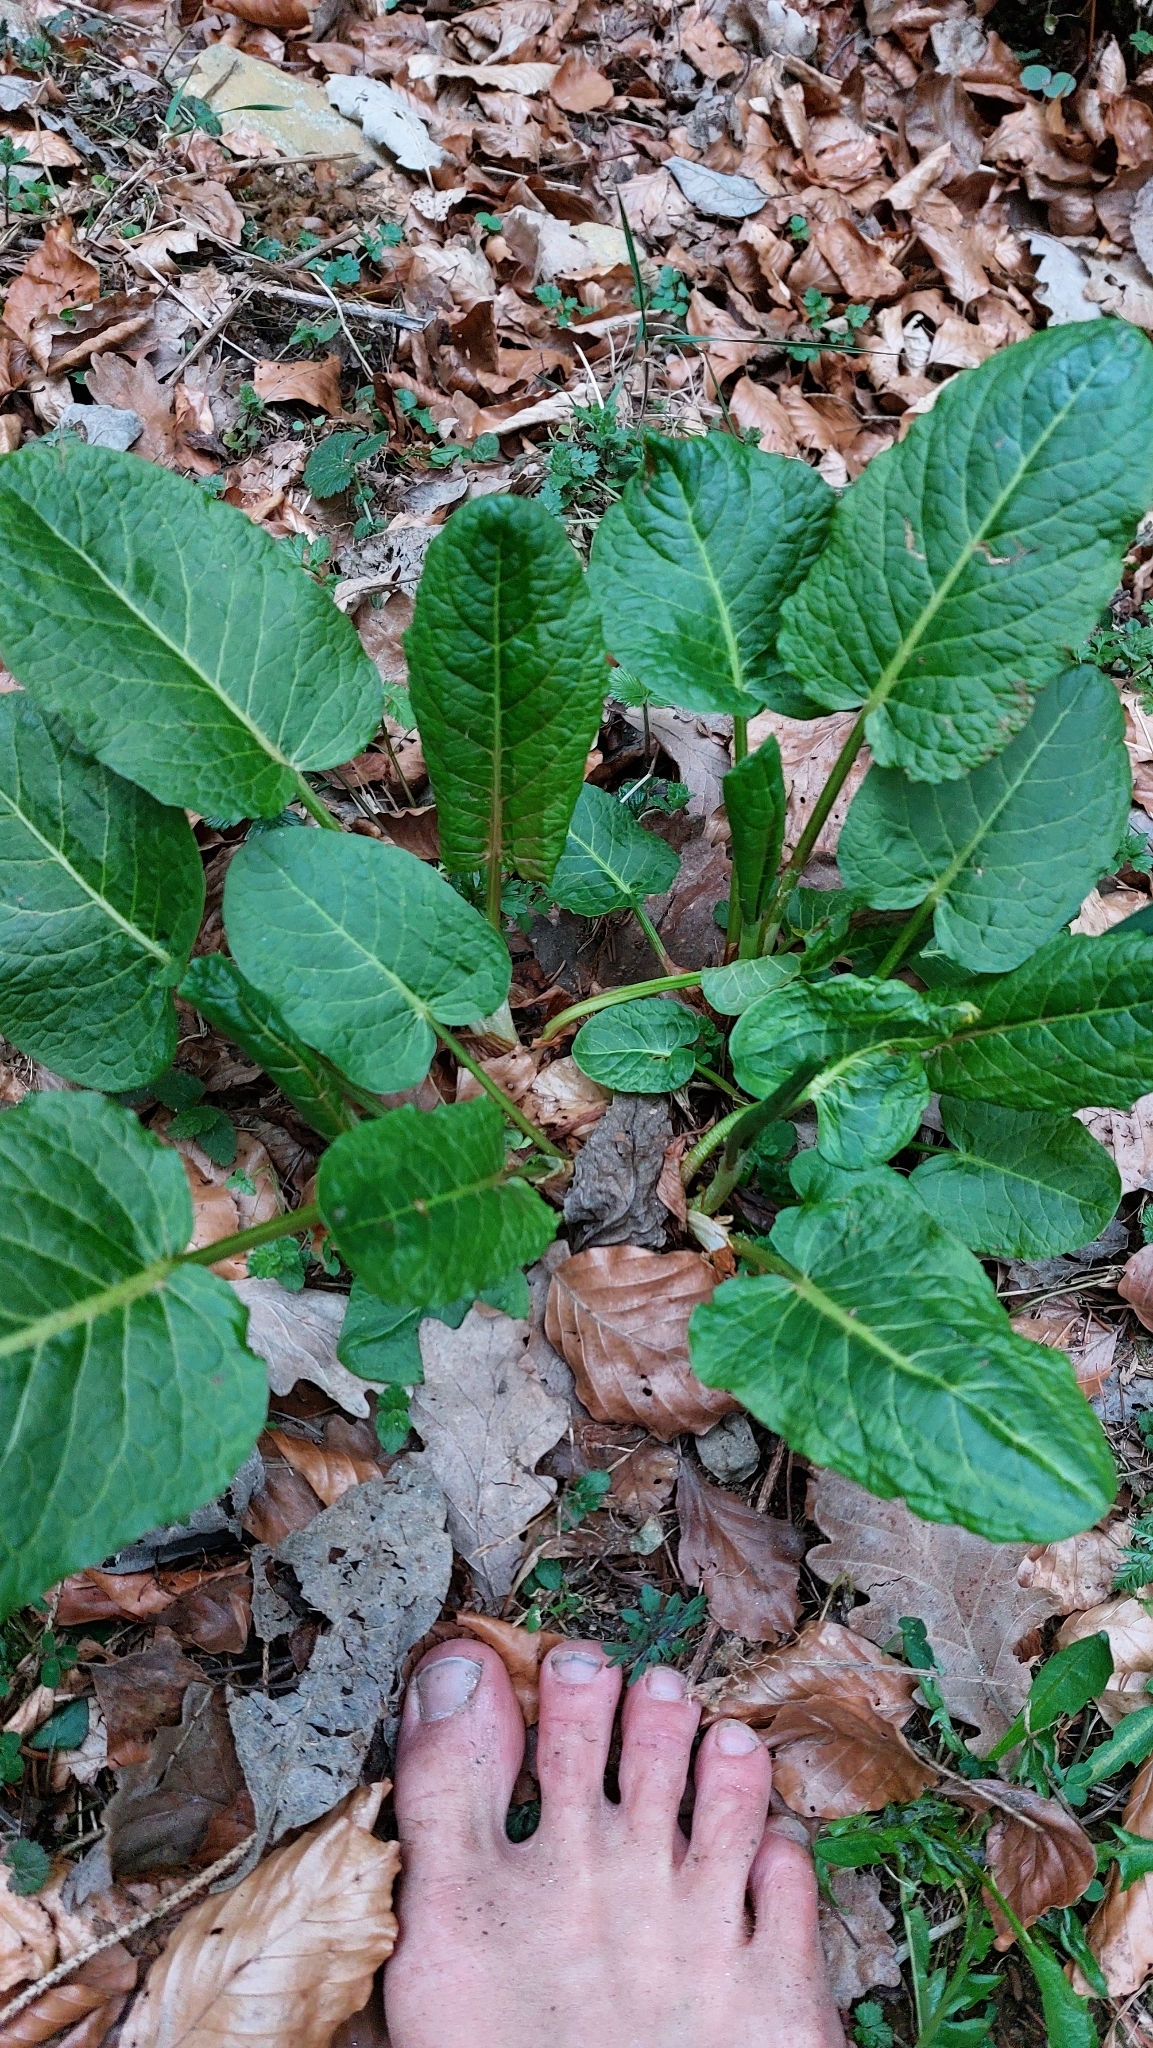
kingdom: Plantae
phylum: Tracheophyta
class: Magnoliopsida
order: Caryophyllales
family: Polygonaceae
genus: Rumex
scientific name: Rumex obtusifolius
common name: Bitter dock
